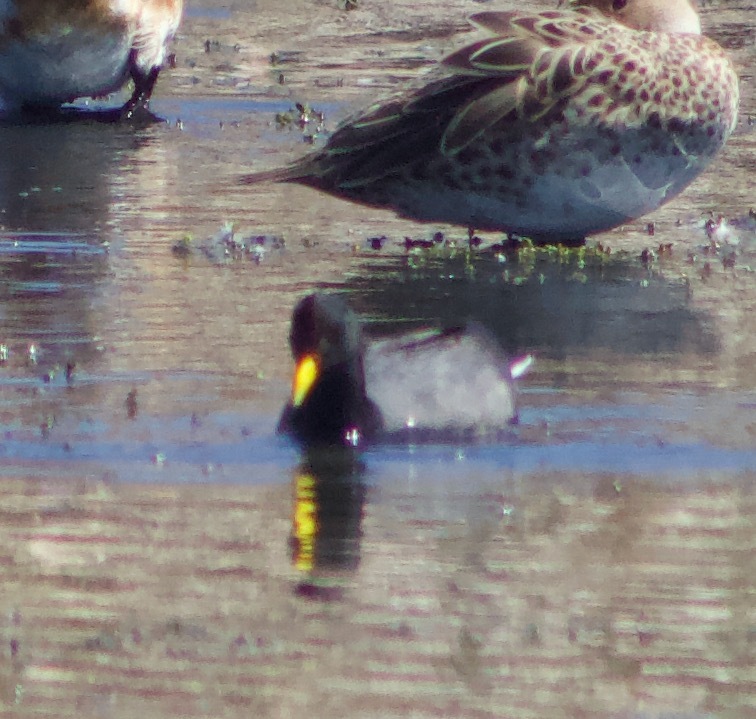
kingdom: Animalia
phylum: Chordata
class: Aves
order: Gruiformes
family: Rallidae
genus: Fulica
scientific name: Fulica rufifrons
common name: Red-fronted coot
